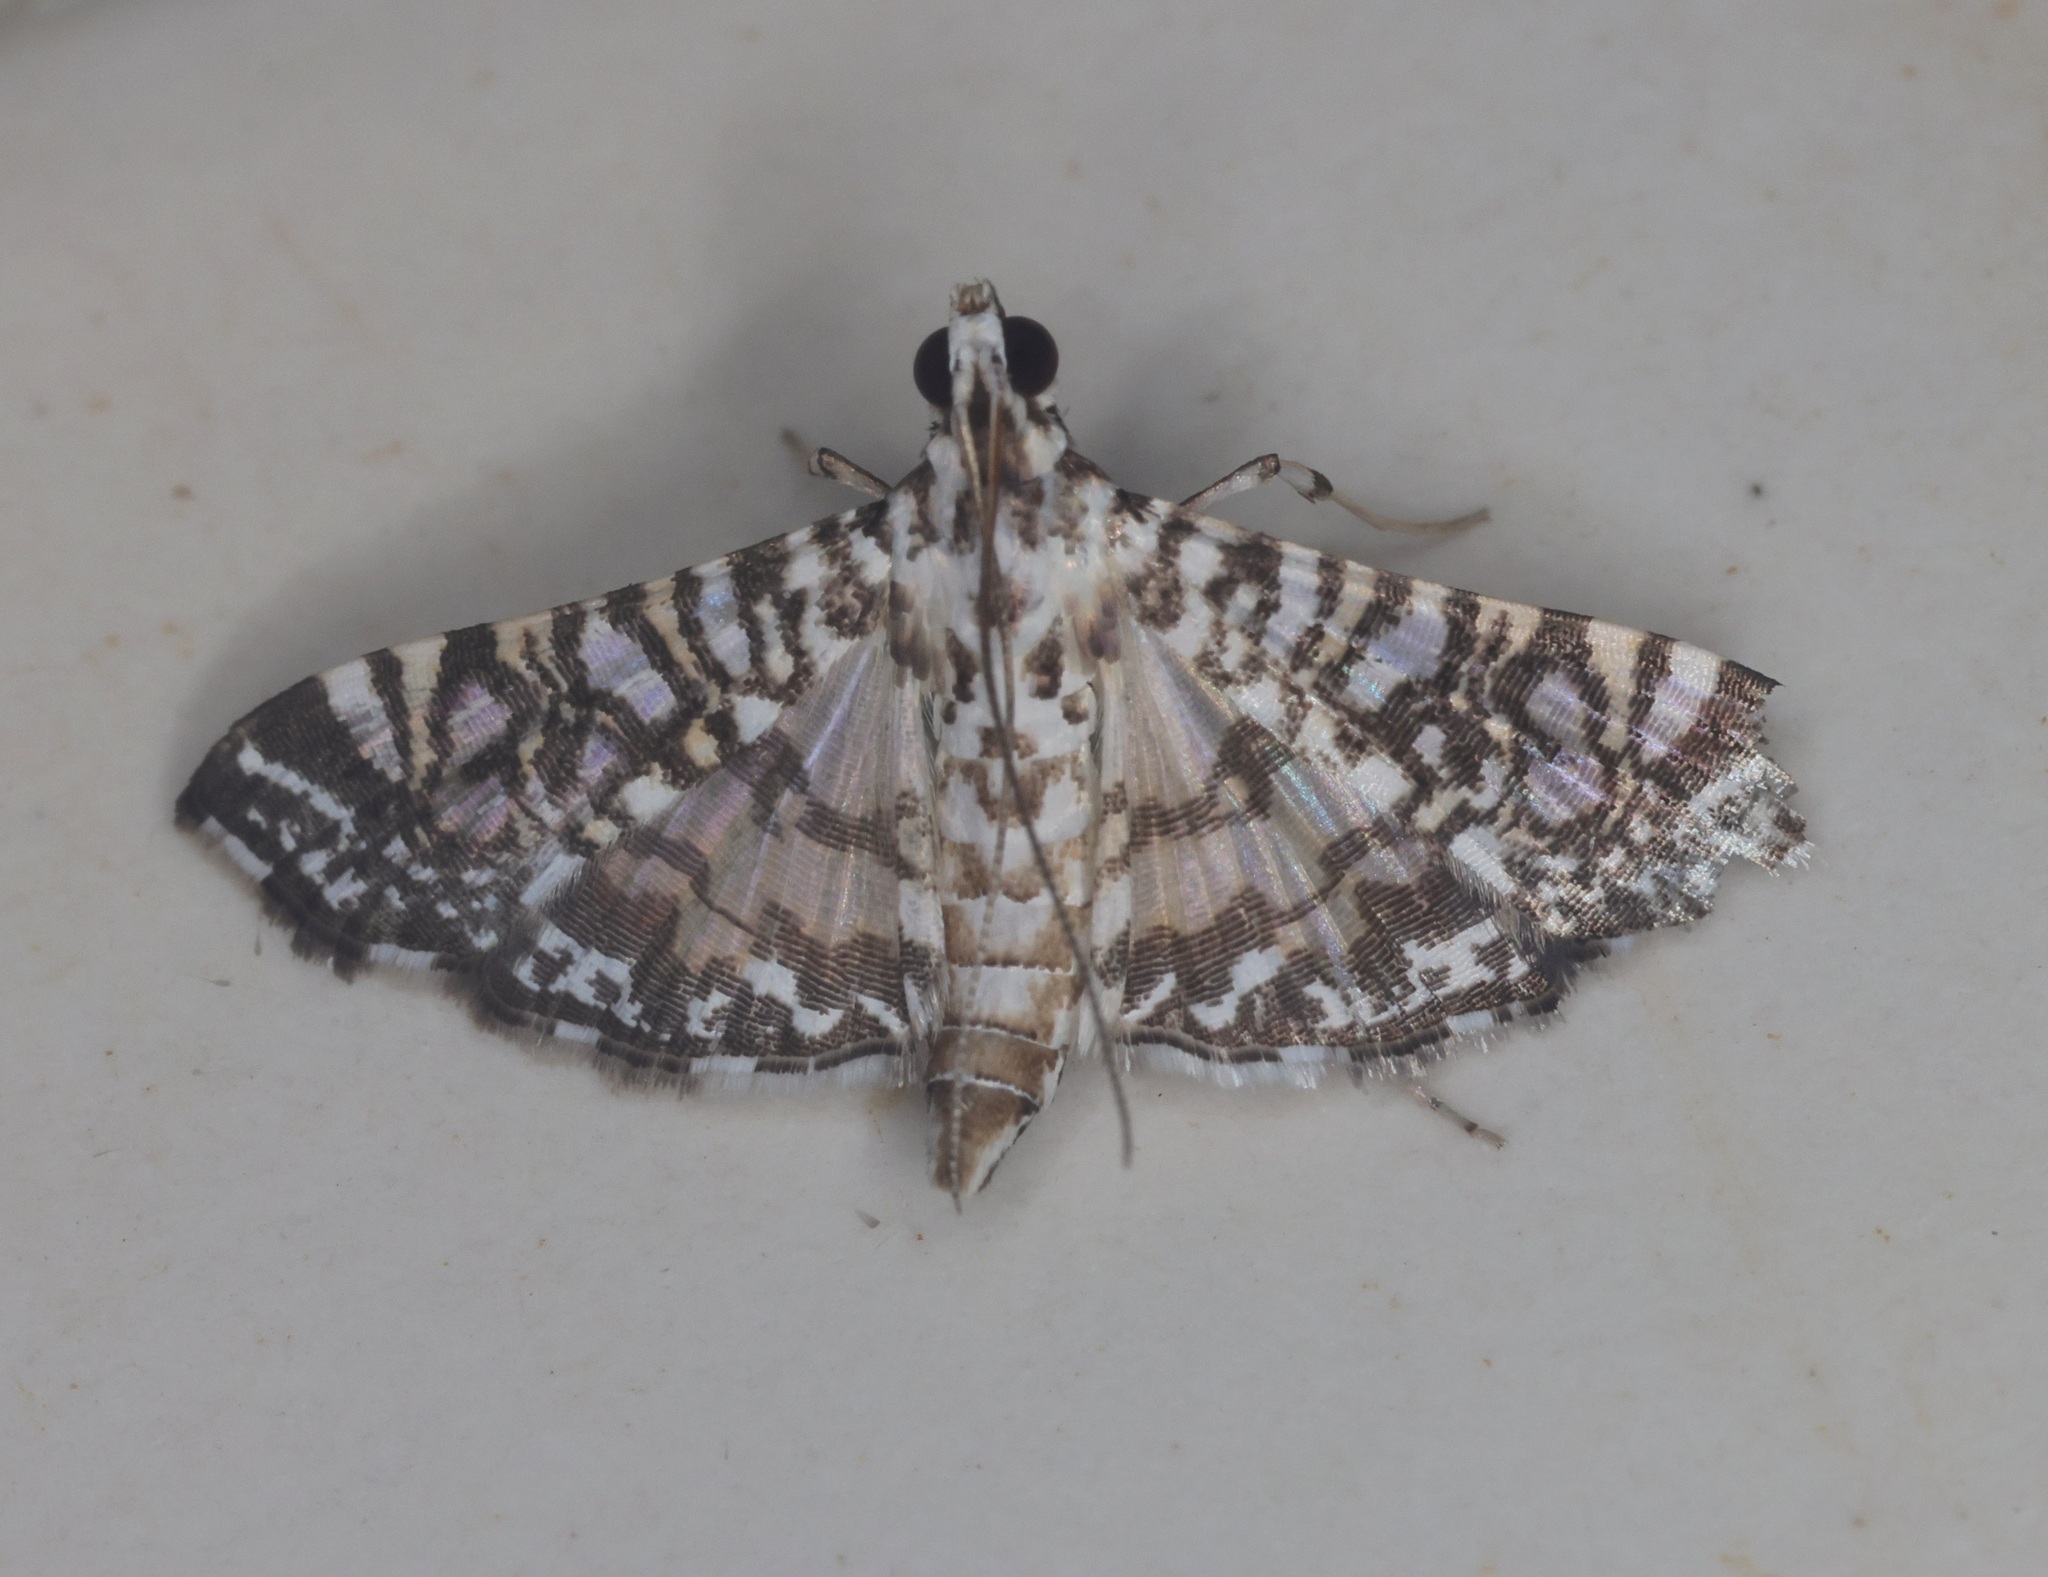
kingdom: Animalia
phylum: Arthropoda
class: Insecta
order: Lepidoptera
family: Crambidae
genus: Glyphodes
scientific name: Glyphodes onychinalis
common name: Swan plant moth
